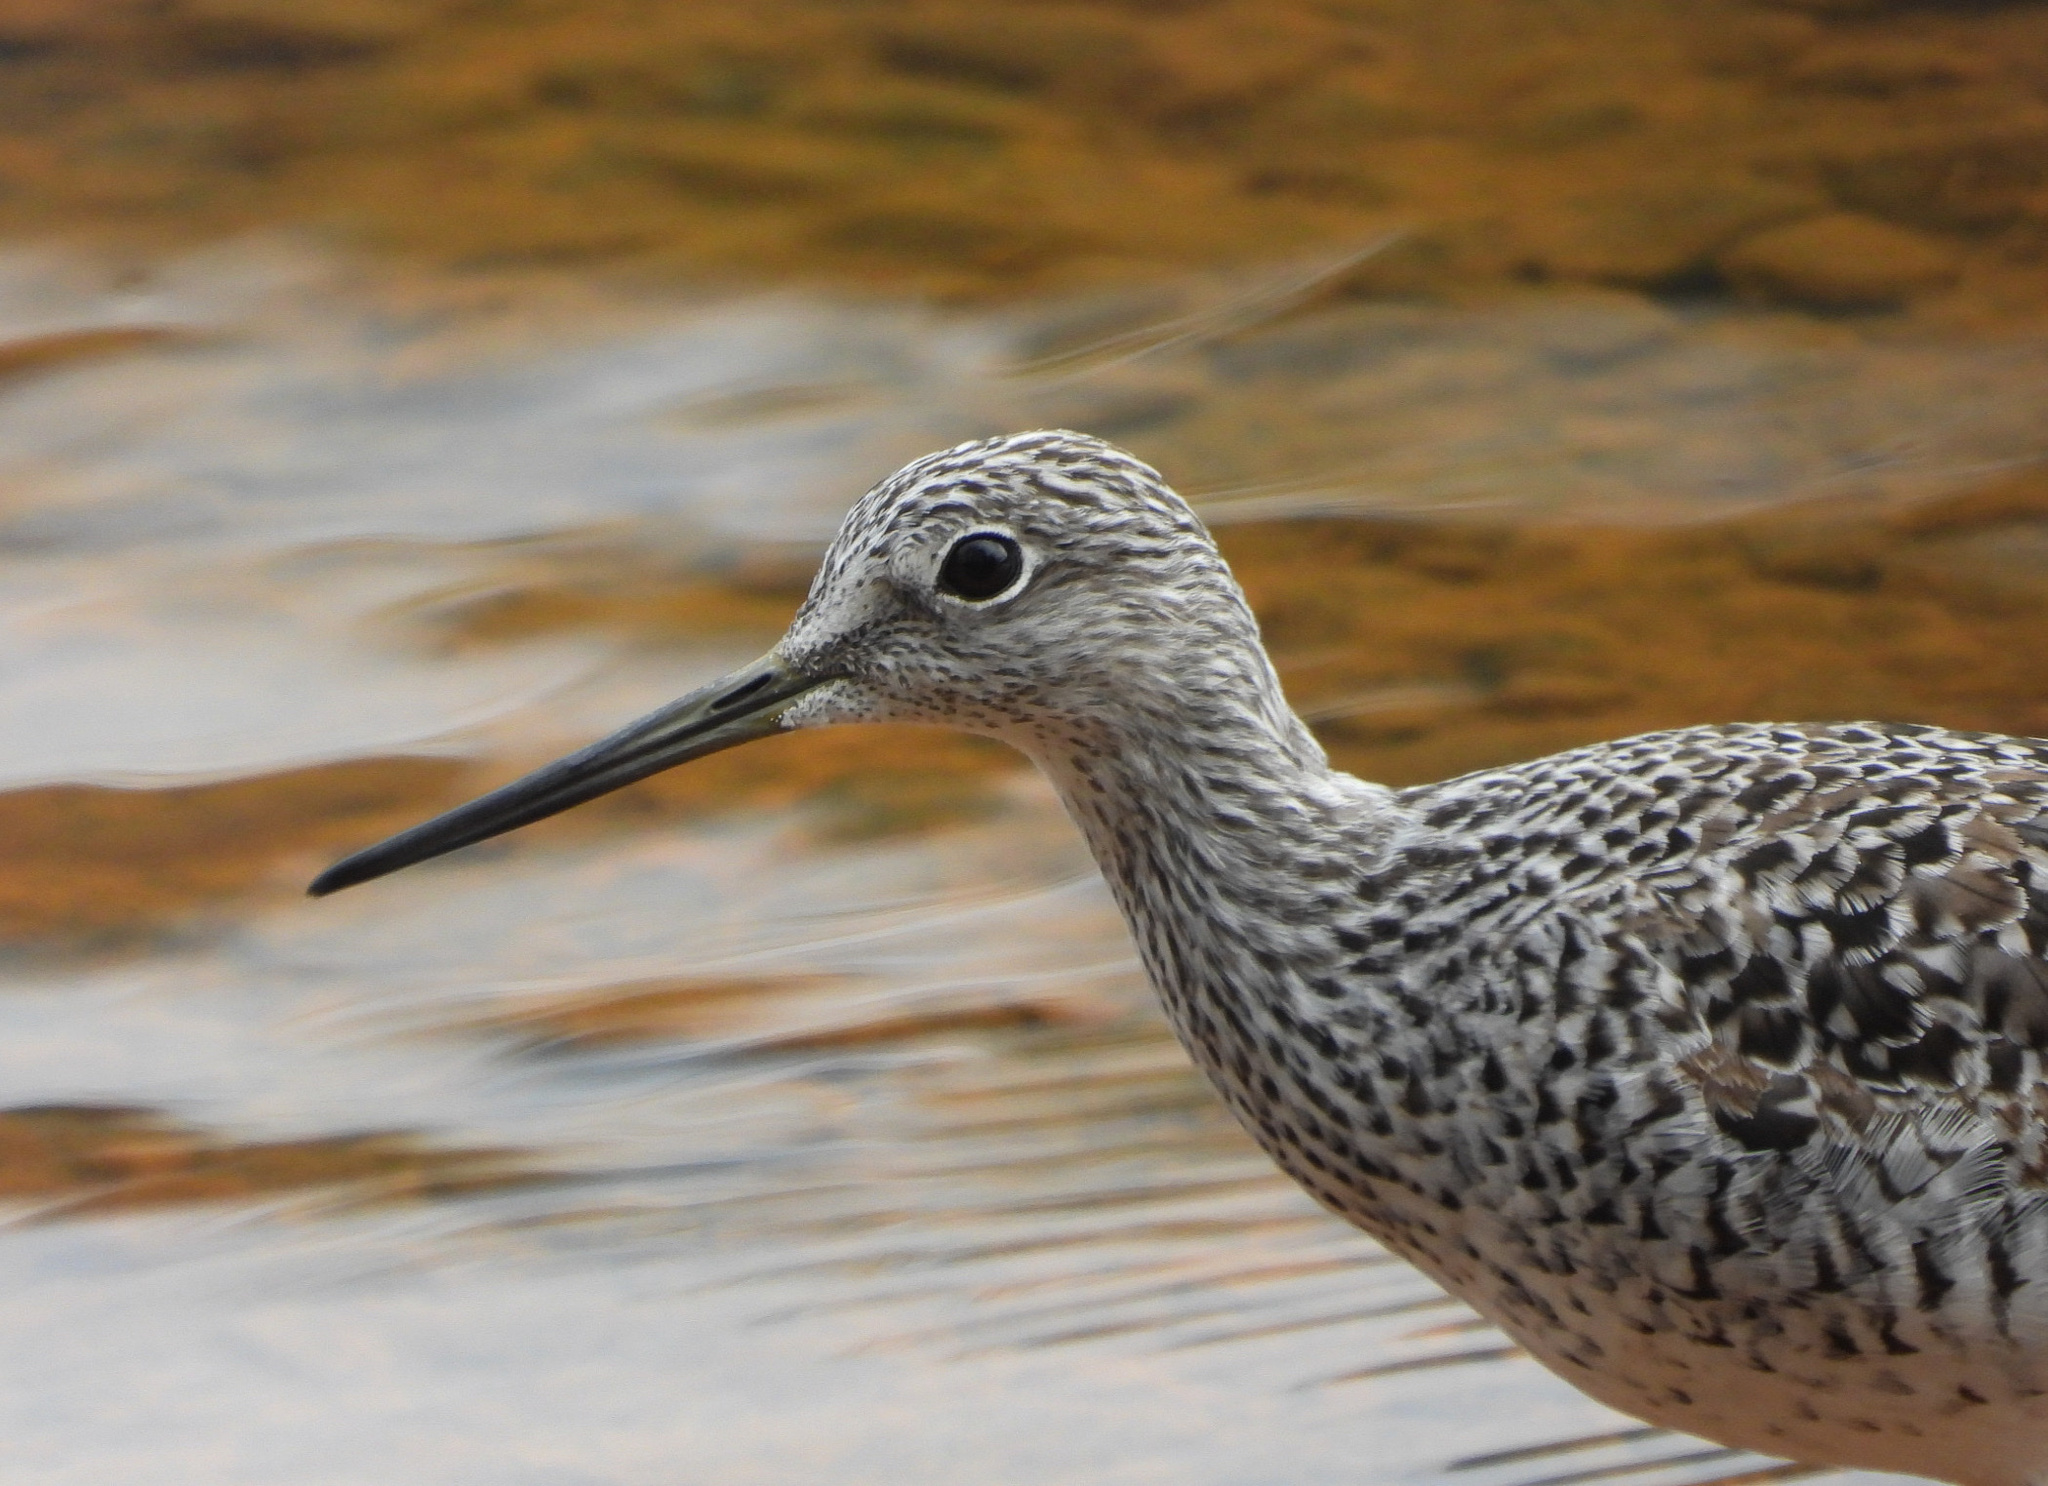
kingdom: Animalia
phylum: Chordata
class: Aves
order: Charadriiformes
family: Scolopacidae
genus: Tringa
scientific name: Tringa melanoleuca
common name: Greater yellowlegs
